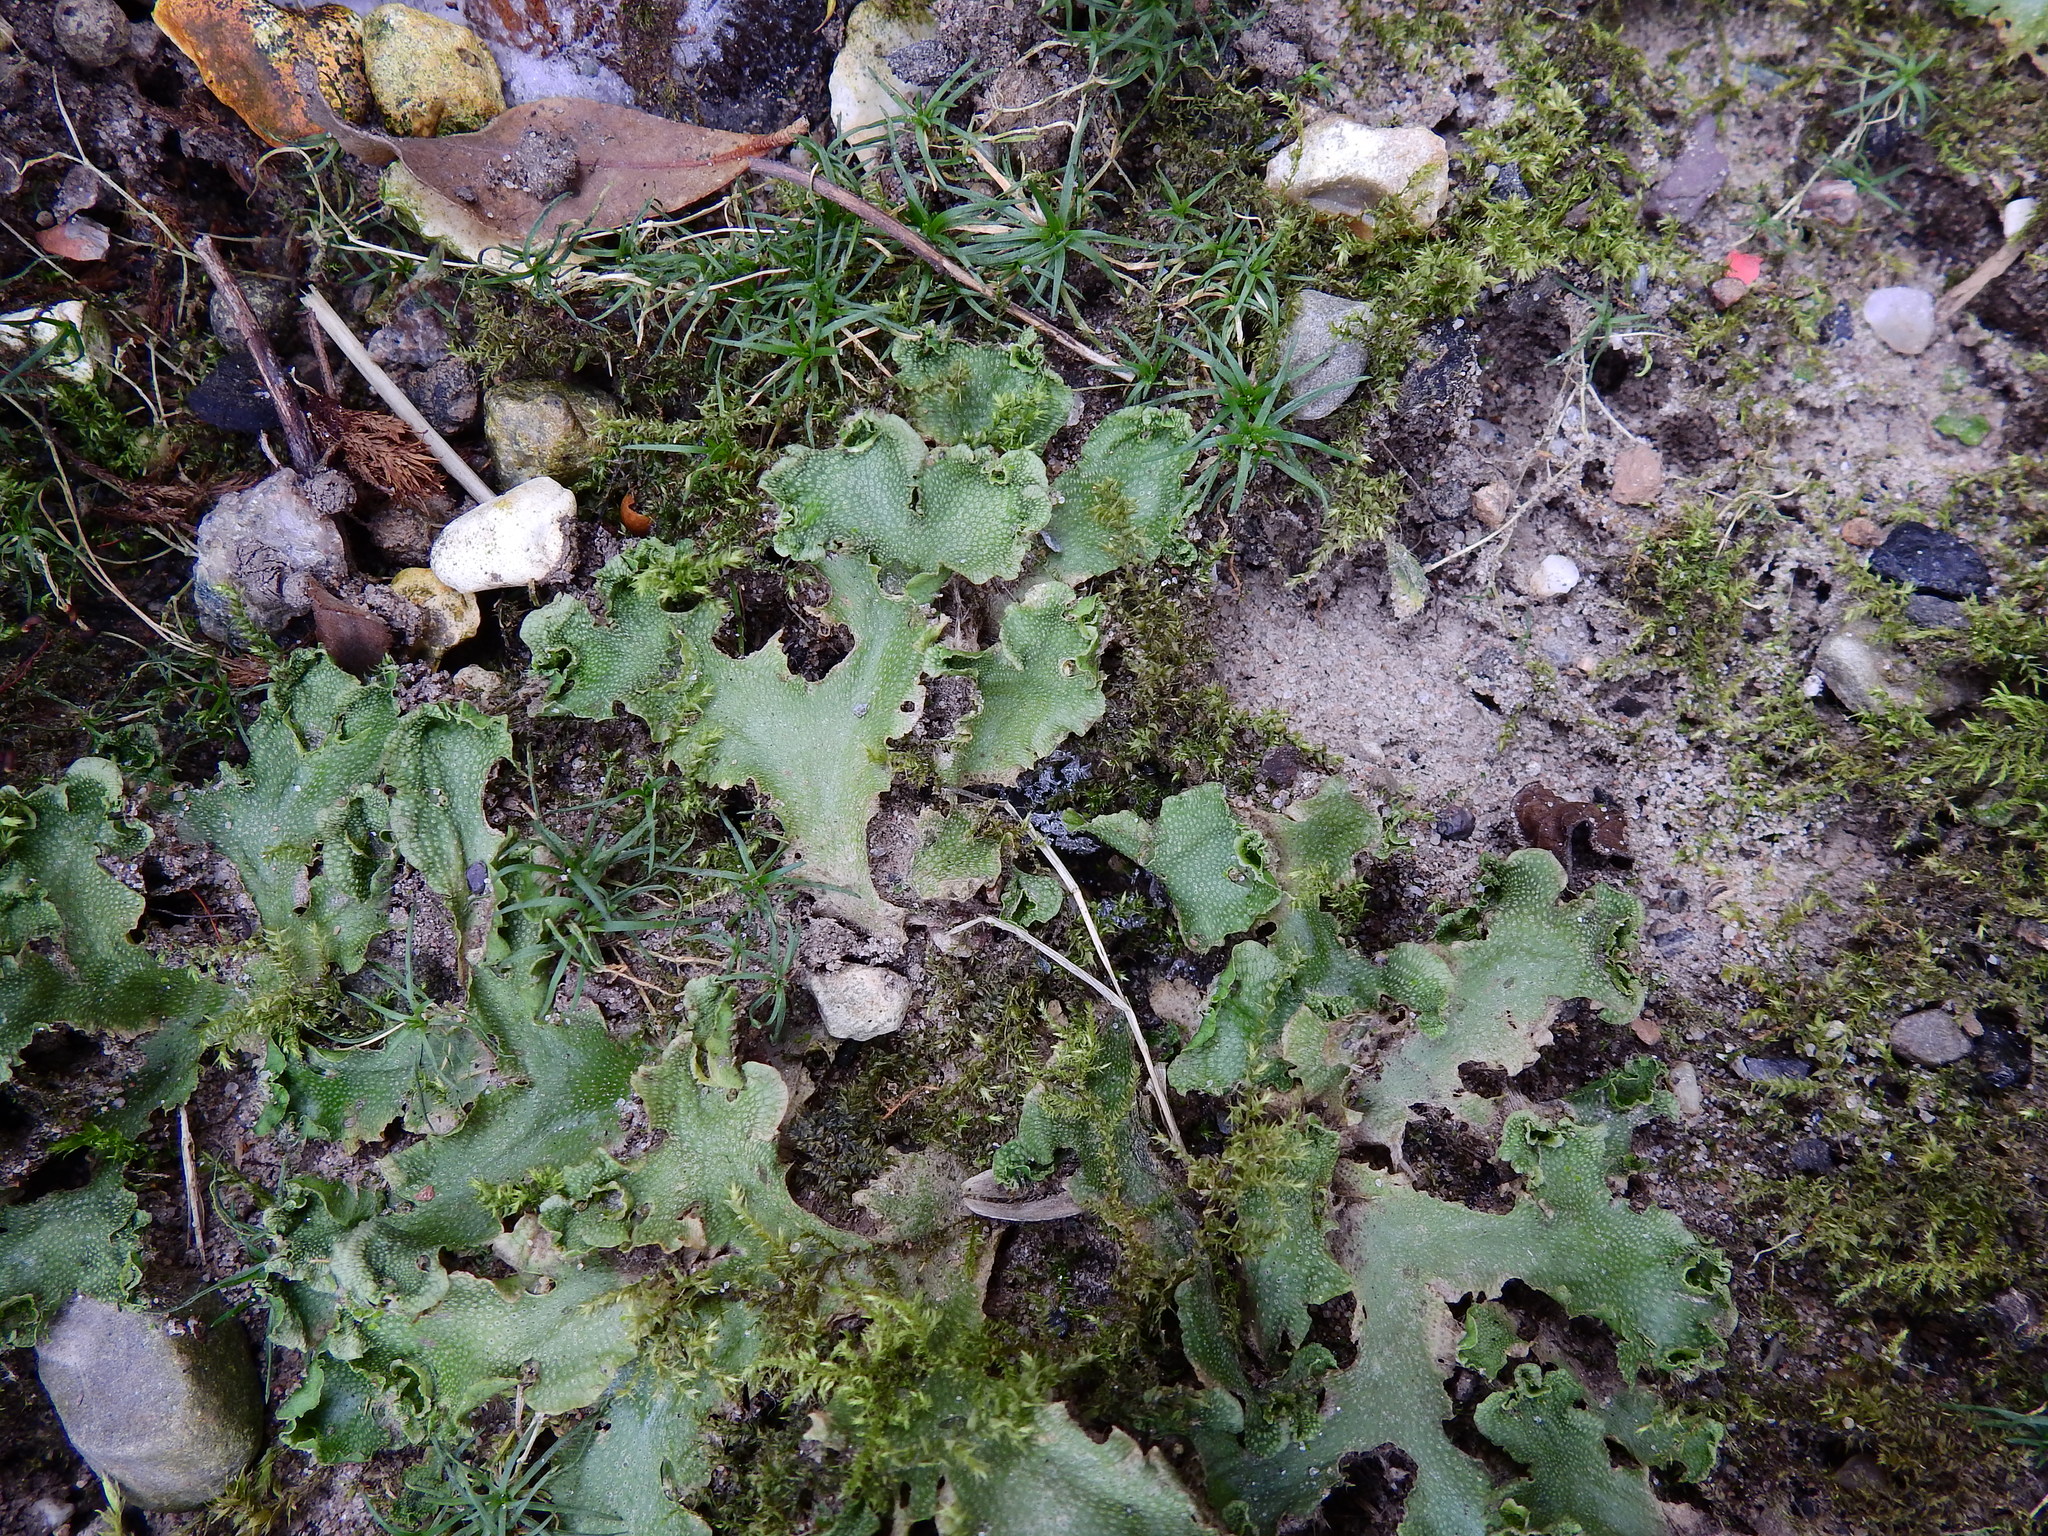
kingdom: Plantae
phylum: Marchantiophyta
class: Marchantiopsida
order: Lunulariales
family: Lunulariaceae
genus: Lunularia
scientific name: Lunularia cruciata
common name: Crescent-cup liverwort
